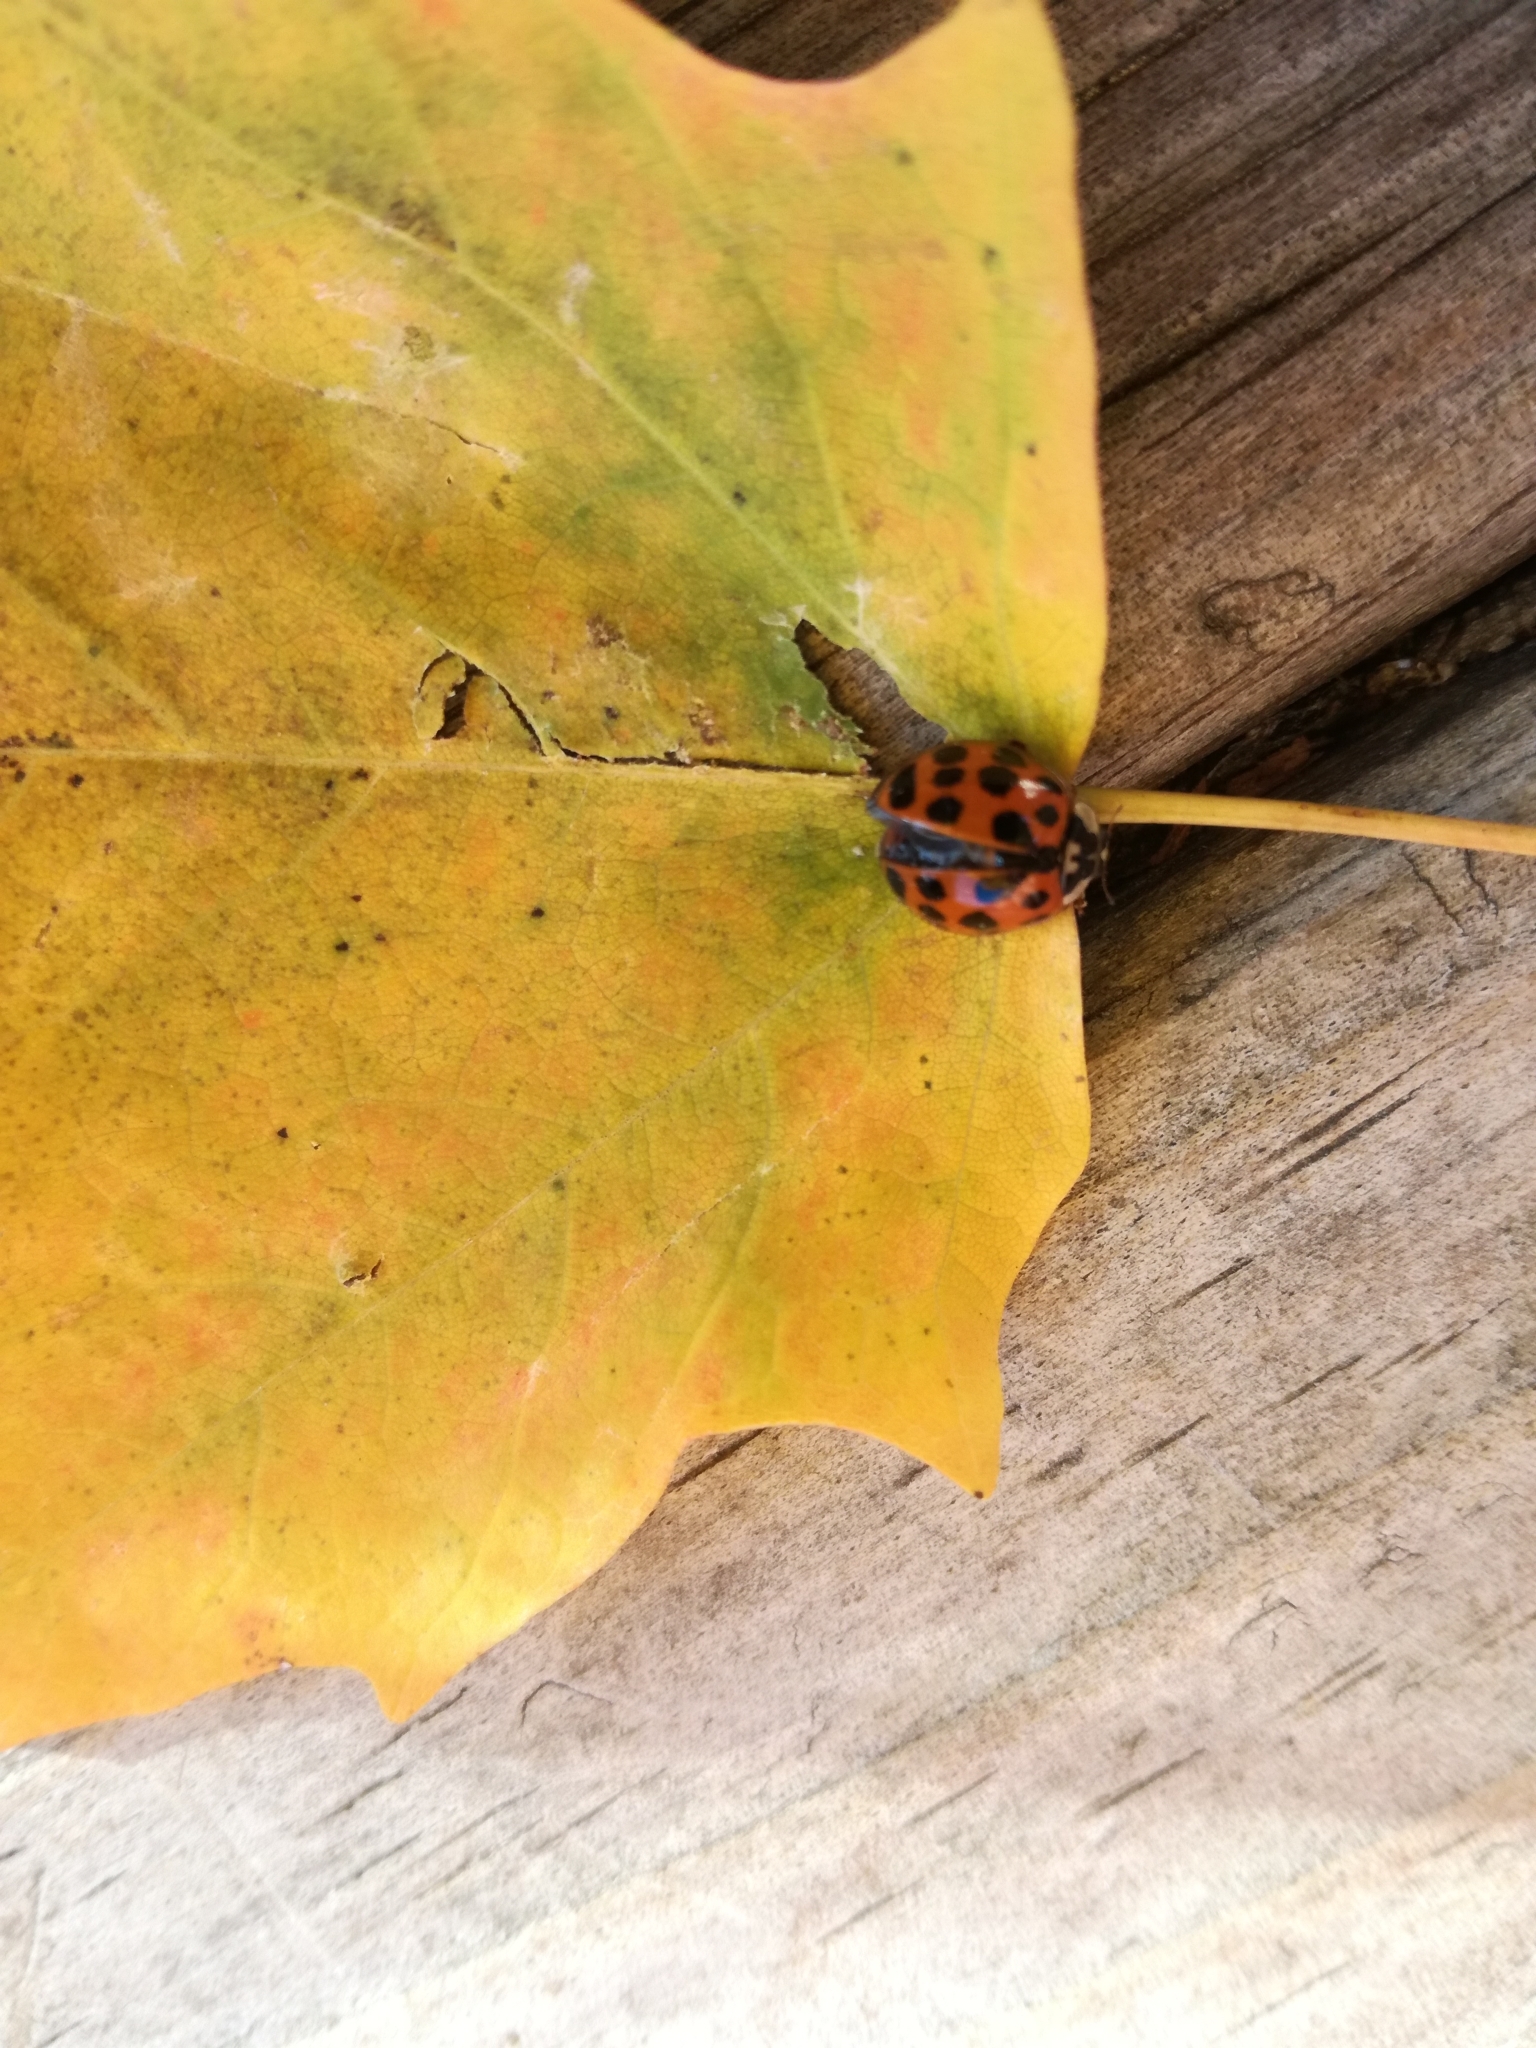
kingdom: Animalia
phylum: Arthropoda
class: Insecta
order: Coleoptera
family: Coccinellidae
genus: Harmonia
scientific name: Harmonia axyridis
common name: Harlequin ladybird
